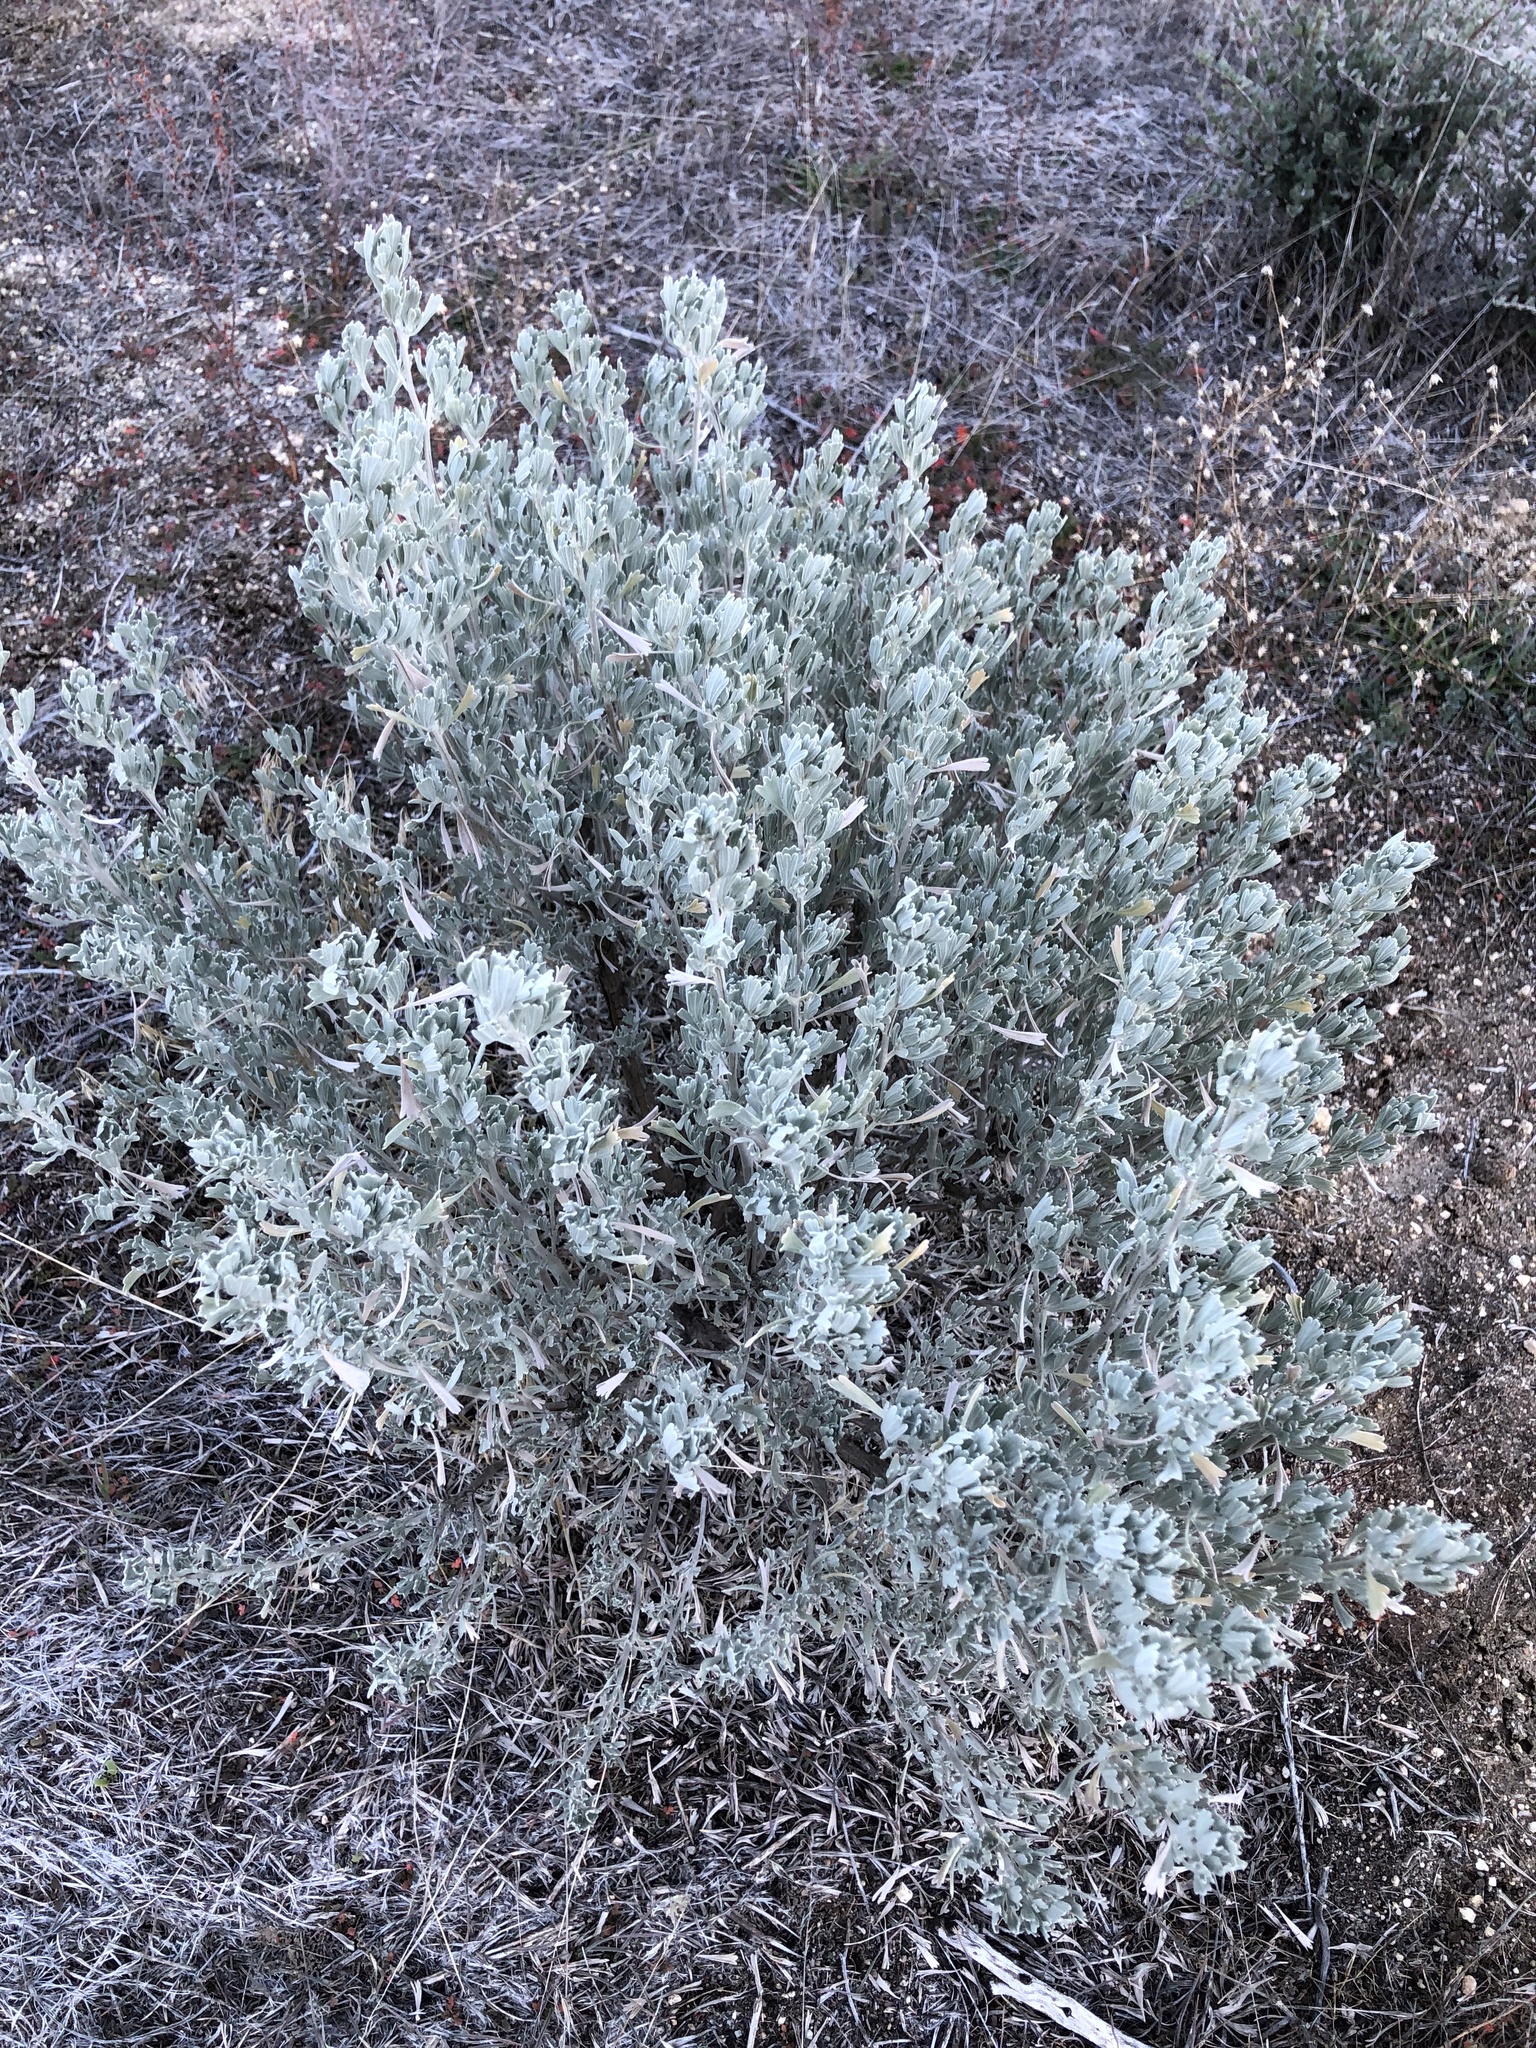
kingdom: Plantae
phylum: Tracheophyta
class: Magnoliopsida
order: Asterales
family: Asteraceae
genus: Artemisia
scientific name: Artemisia tridentata
